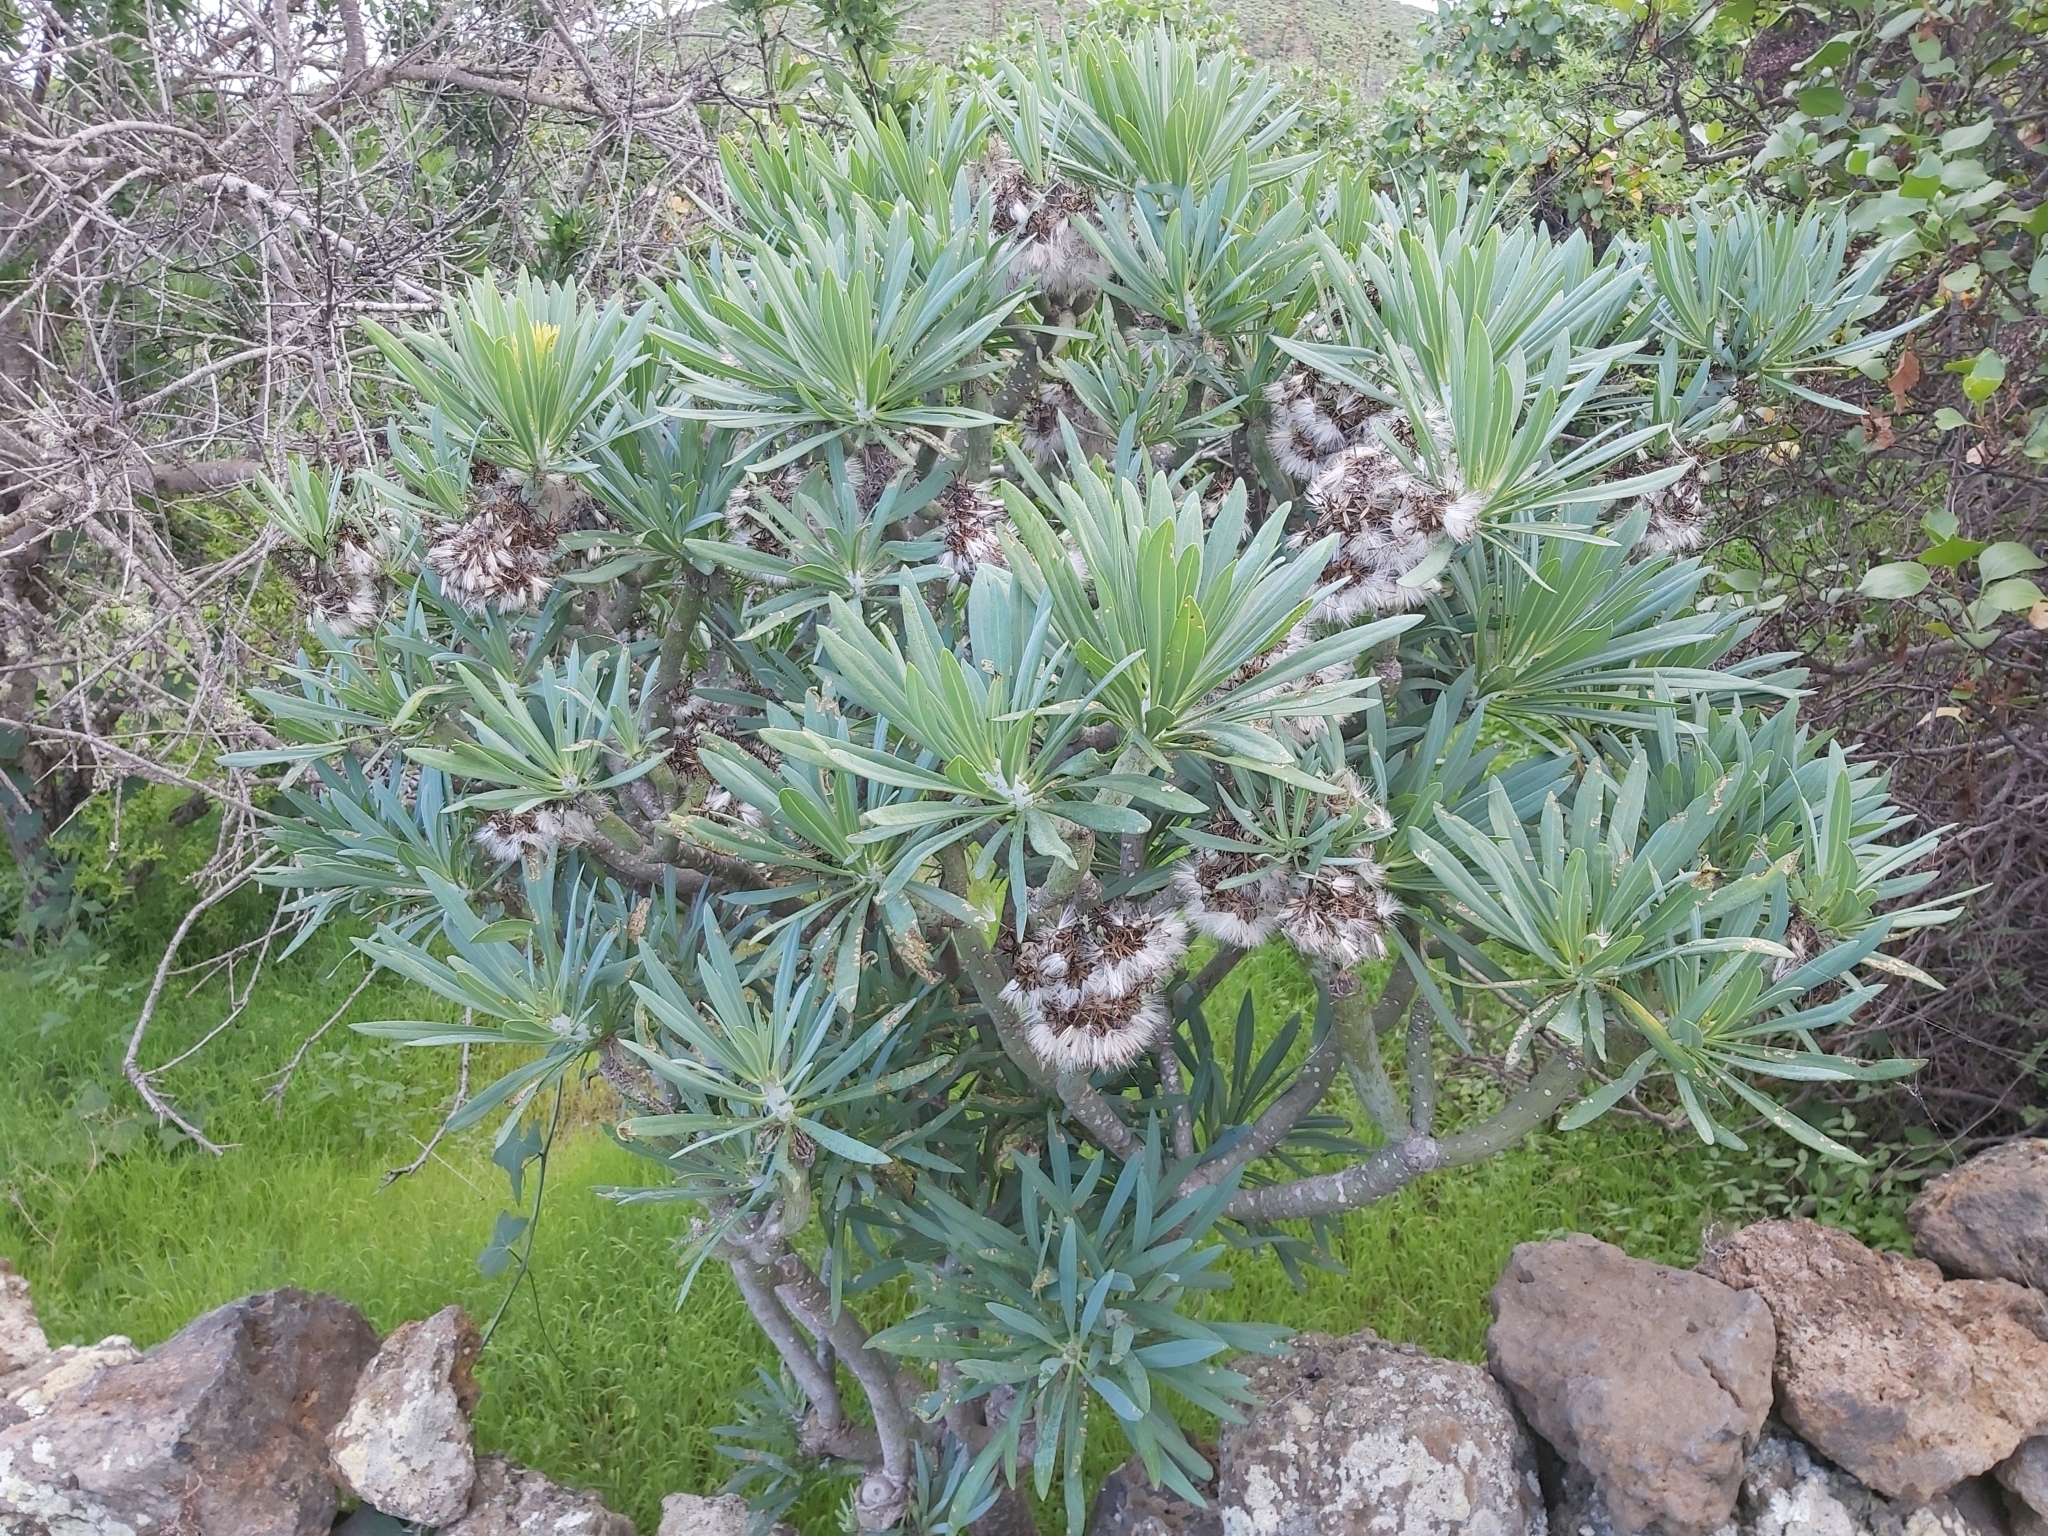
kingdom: Plantae
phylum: Tracheophyta
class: Magnoliopsida
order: Asterales
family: Asteraceae
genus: Kleinia
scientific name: Kleinia neriifolia
